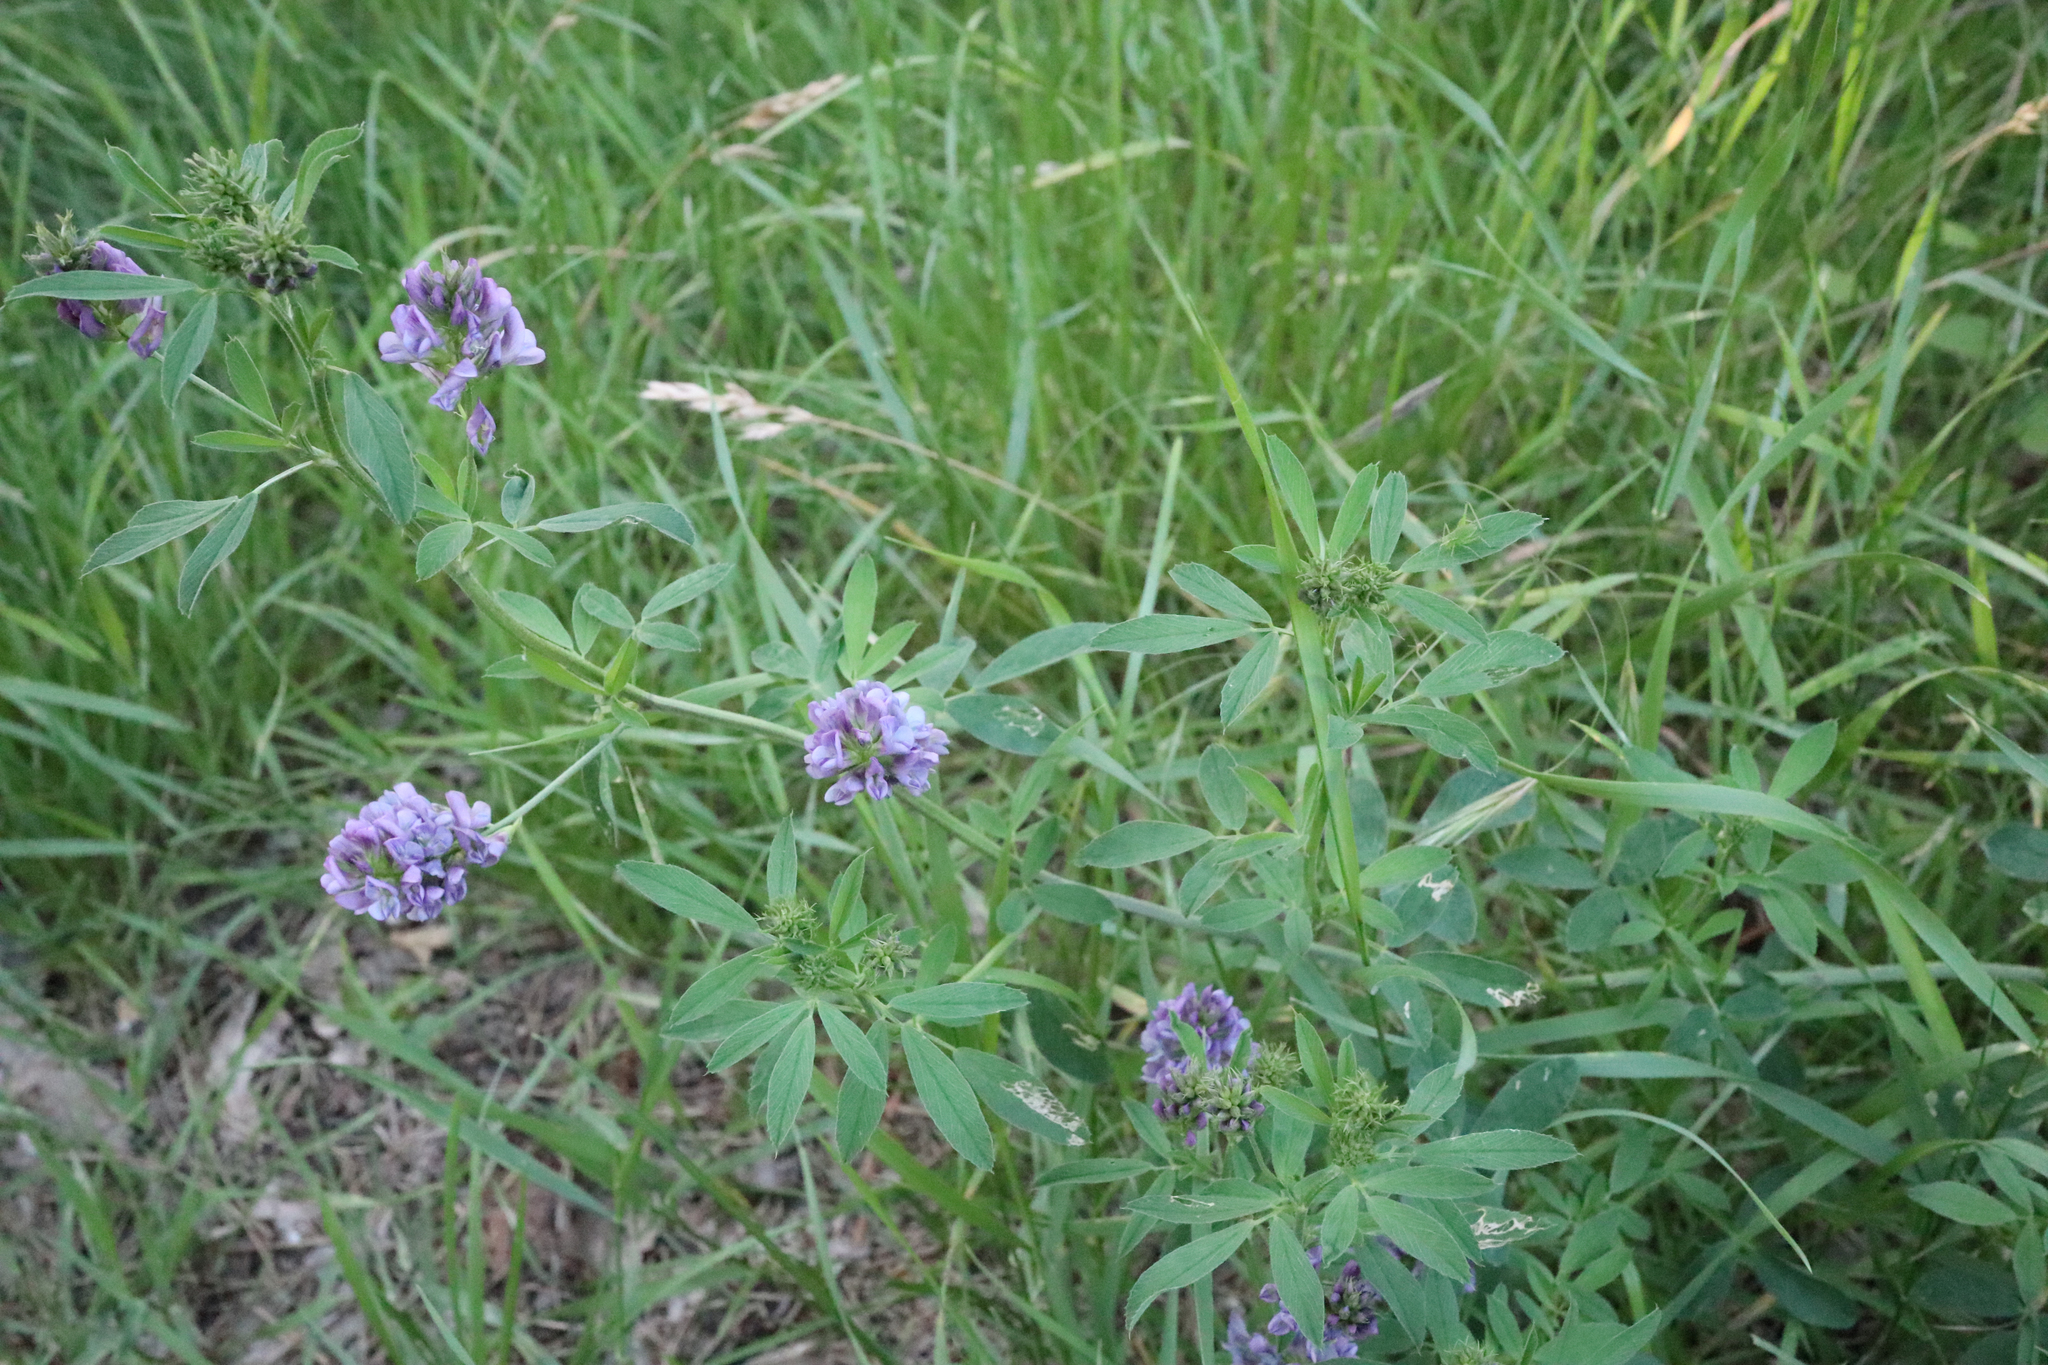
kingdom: Plantae
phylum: Tracheophyta
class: Magnoliopsida
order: Fabales
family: Fabaceae
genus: Medicago
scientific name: Medicago sativa
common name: Alfalfa
